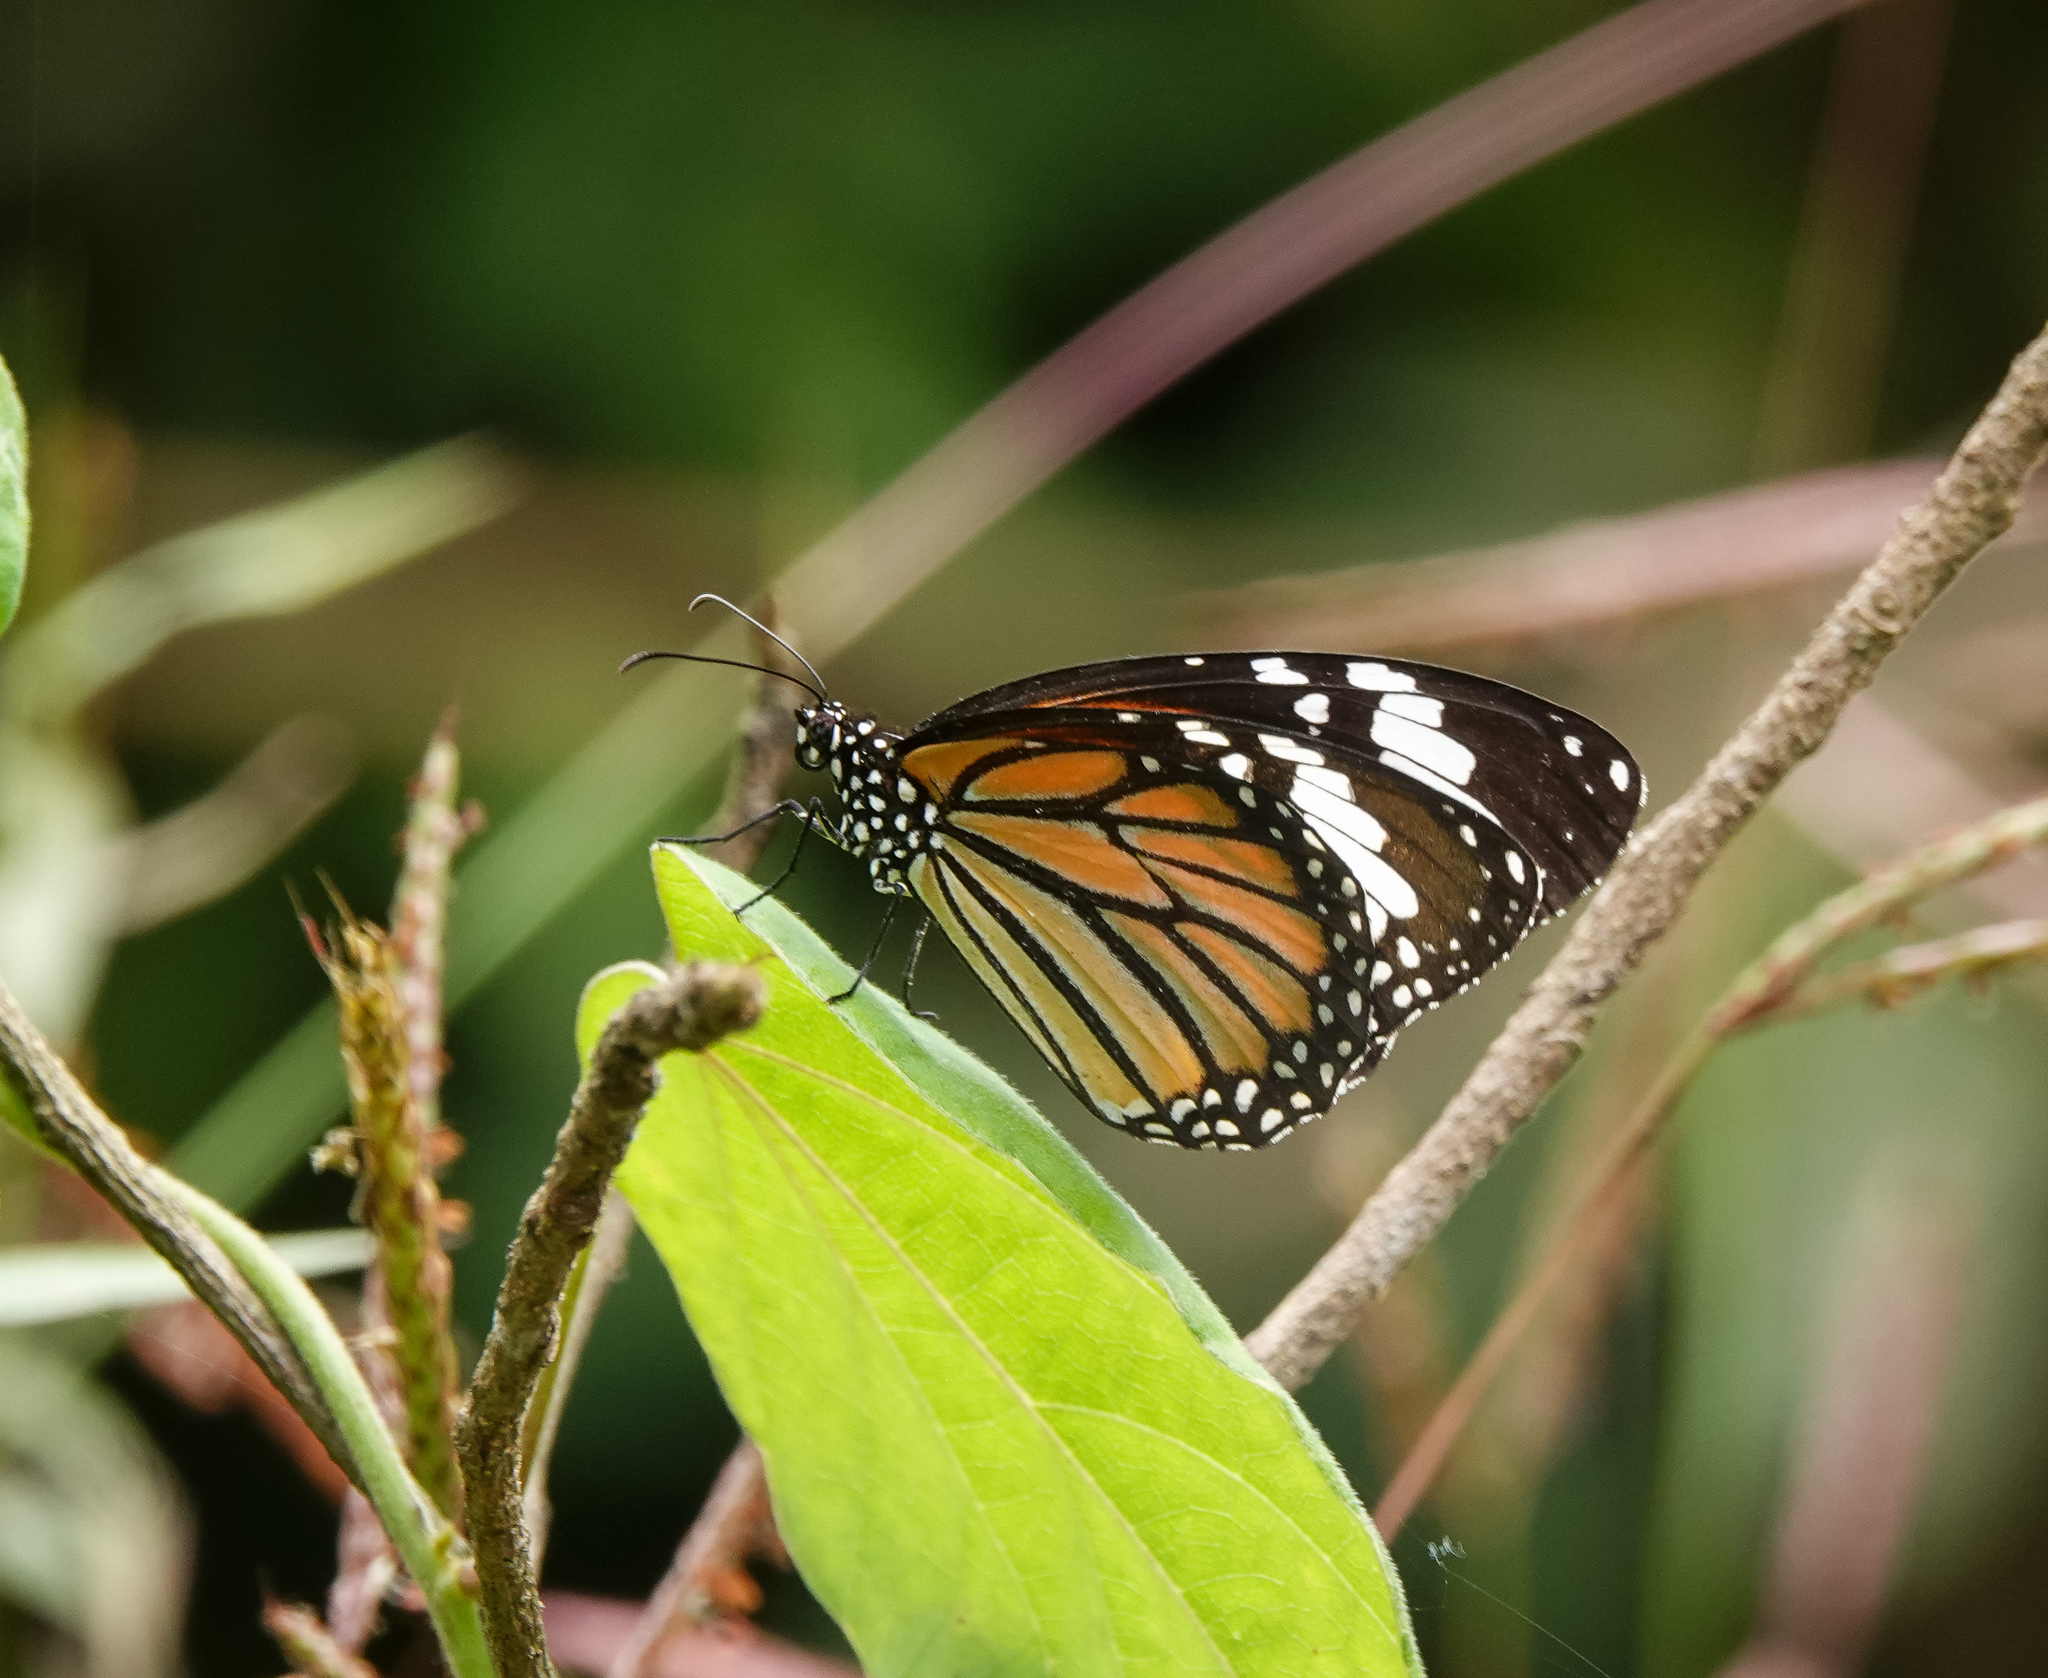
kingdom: Animalia
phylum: Arthropoda
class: Insecta
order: Lepidoptera
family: Nymphalidae
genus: Danaus
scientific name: Danaus genutia
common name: Common tiger butterfly
